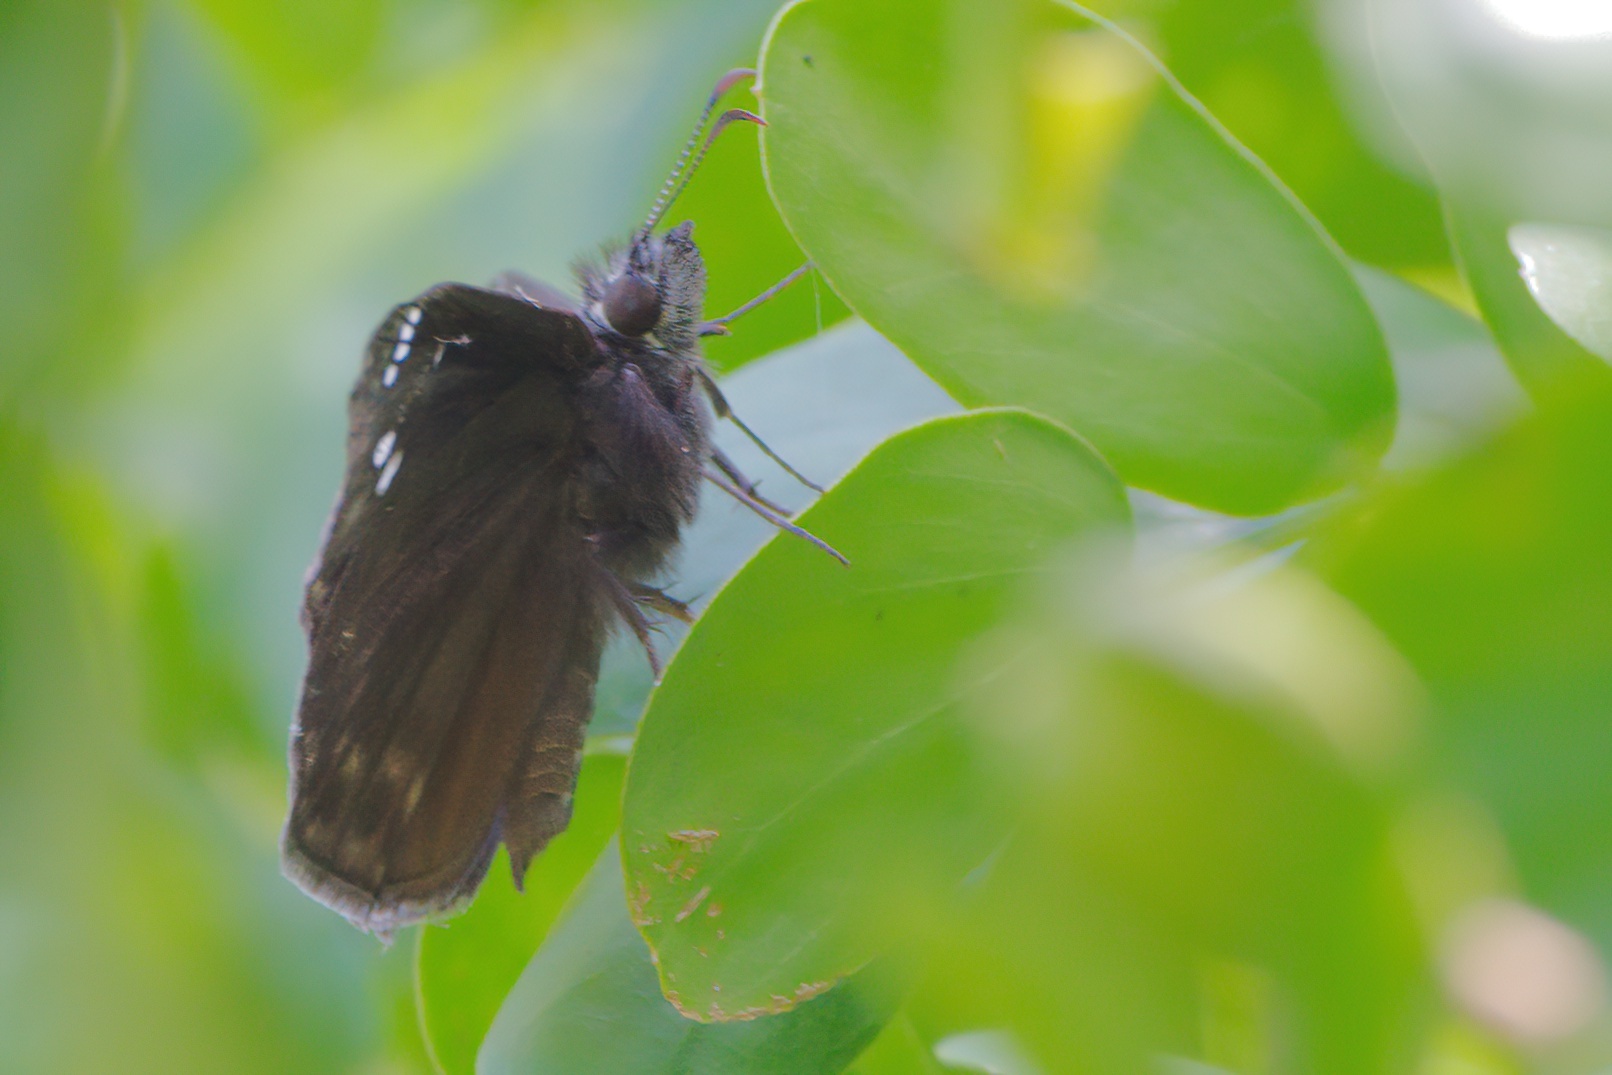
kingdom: Animalia
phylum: Arthropoda
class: Insecta
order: Lepidoptera
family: Hesperiidae
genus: Erynnis
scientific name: Erynnis horatius
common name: Horace's duskywing
